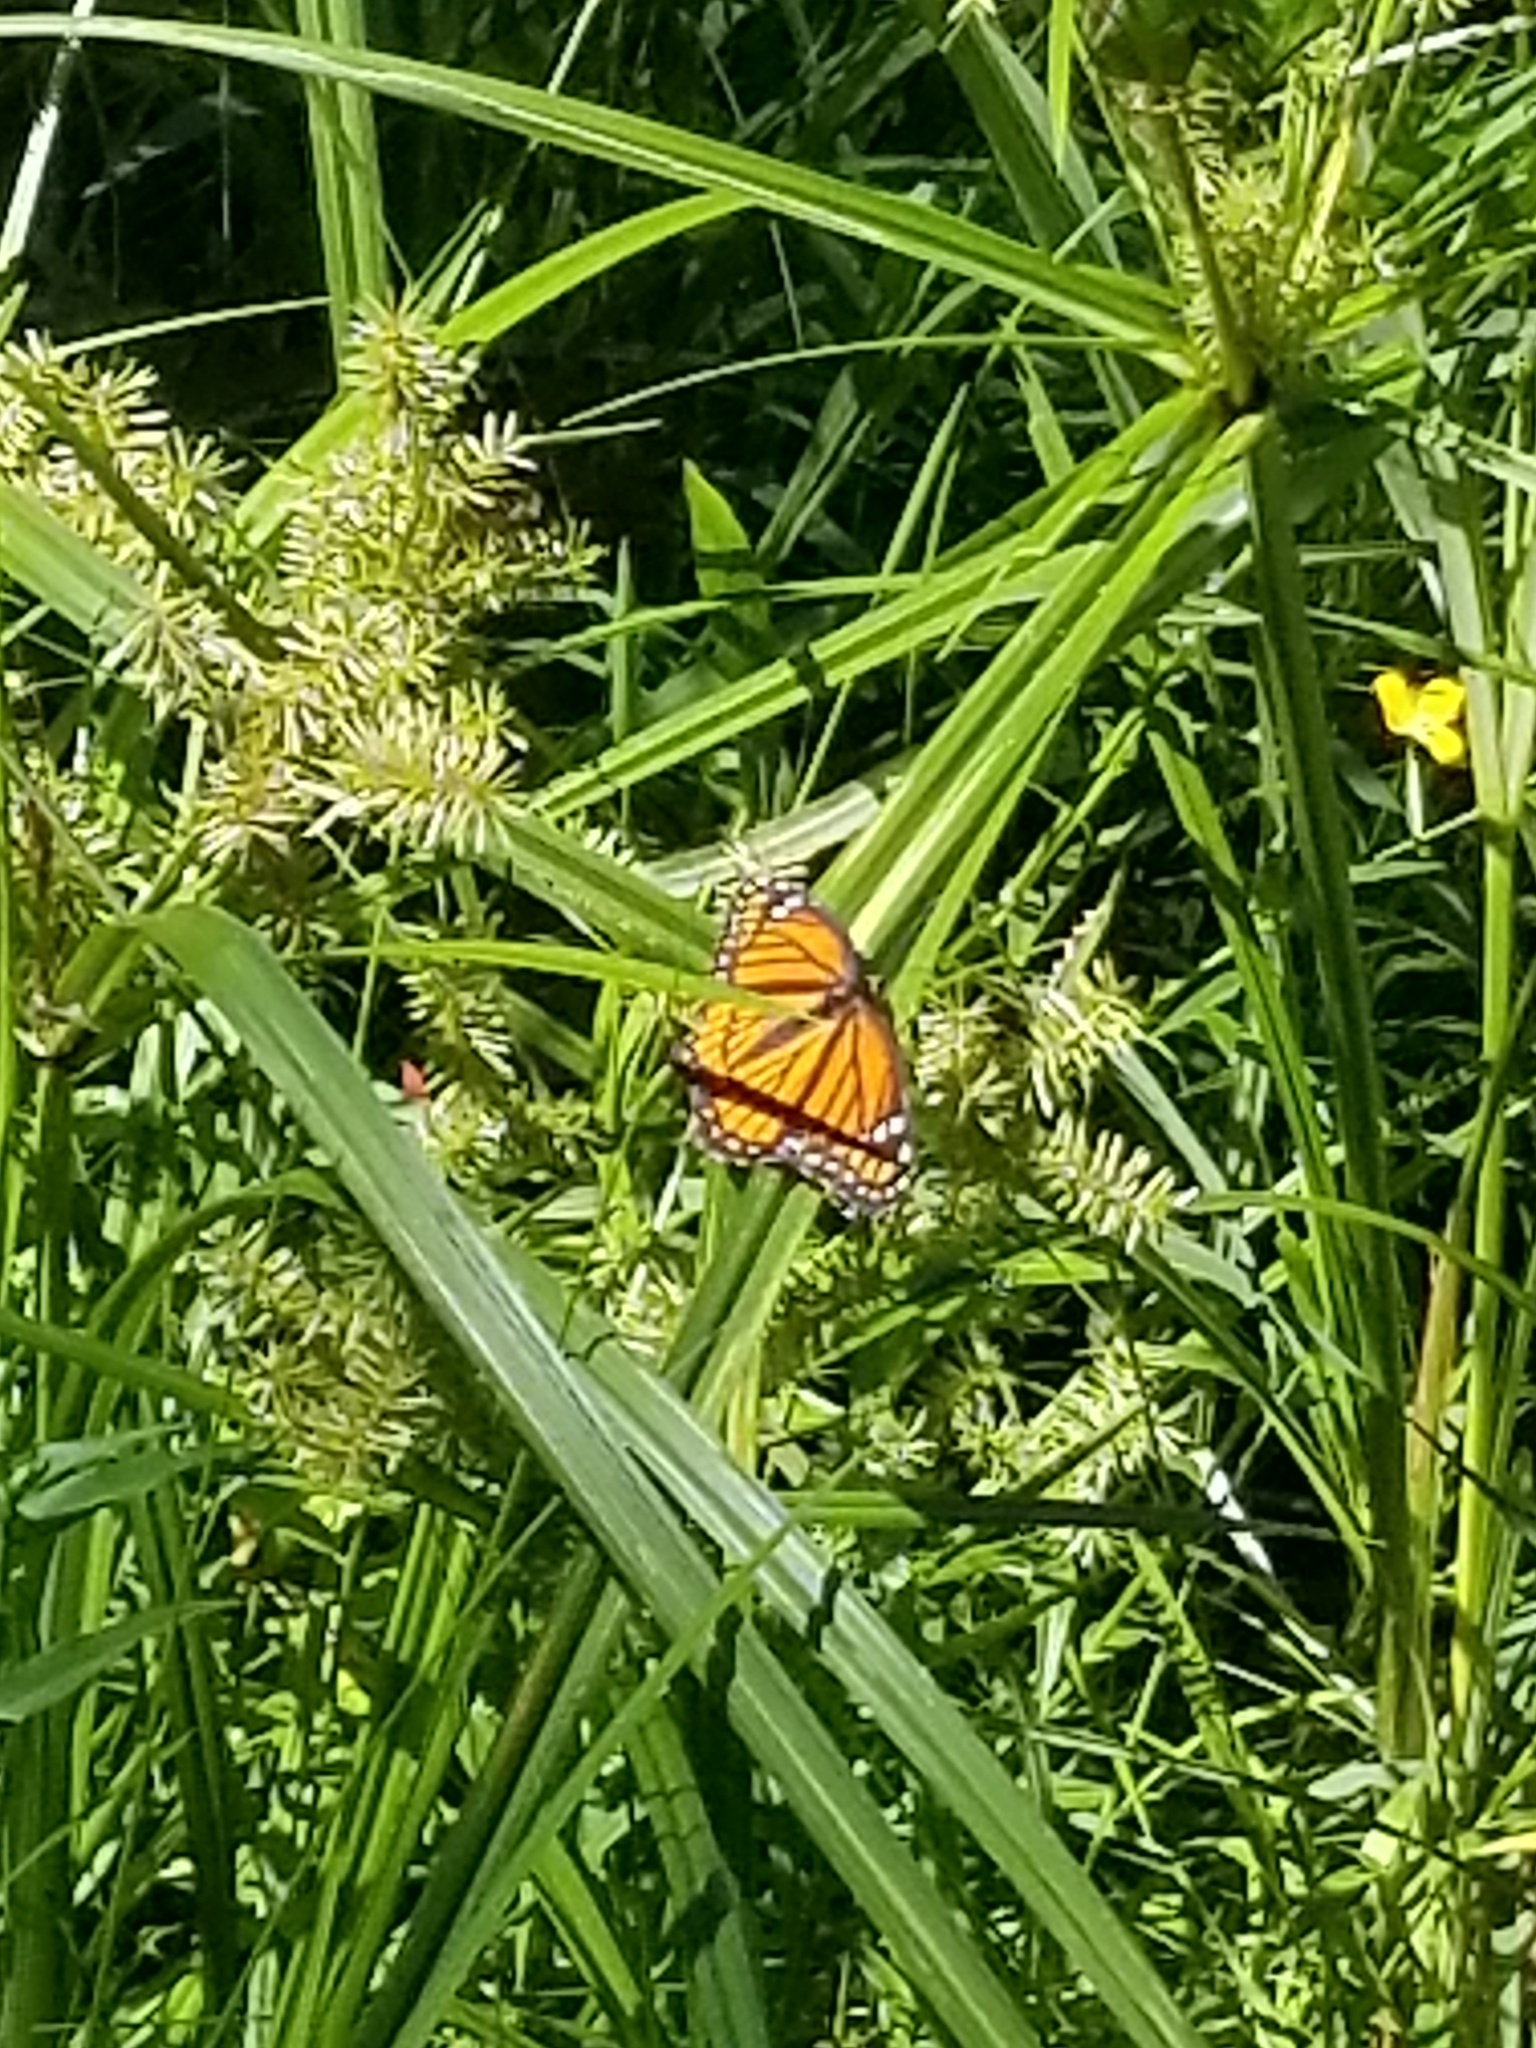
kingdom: Animalia
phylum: Arthropoda
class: Insecta
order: Lepidoptera
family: Nymphalidae
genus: Limenitis
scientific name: Limenitis archippus
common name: Viceroy
